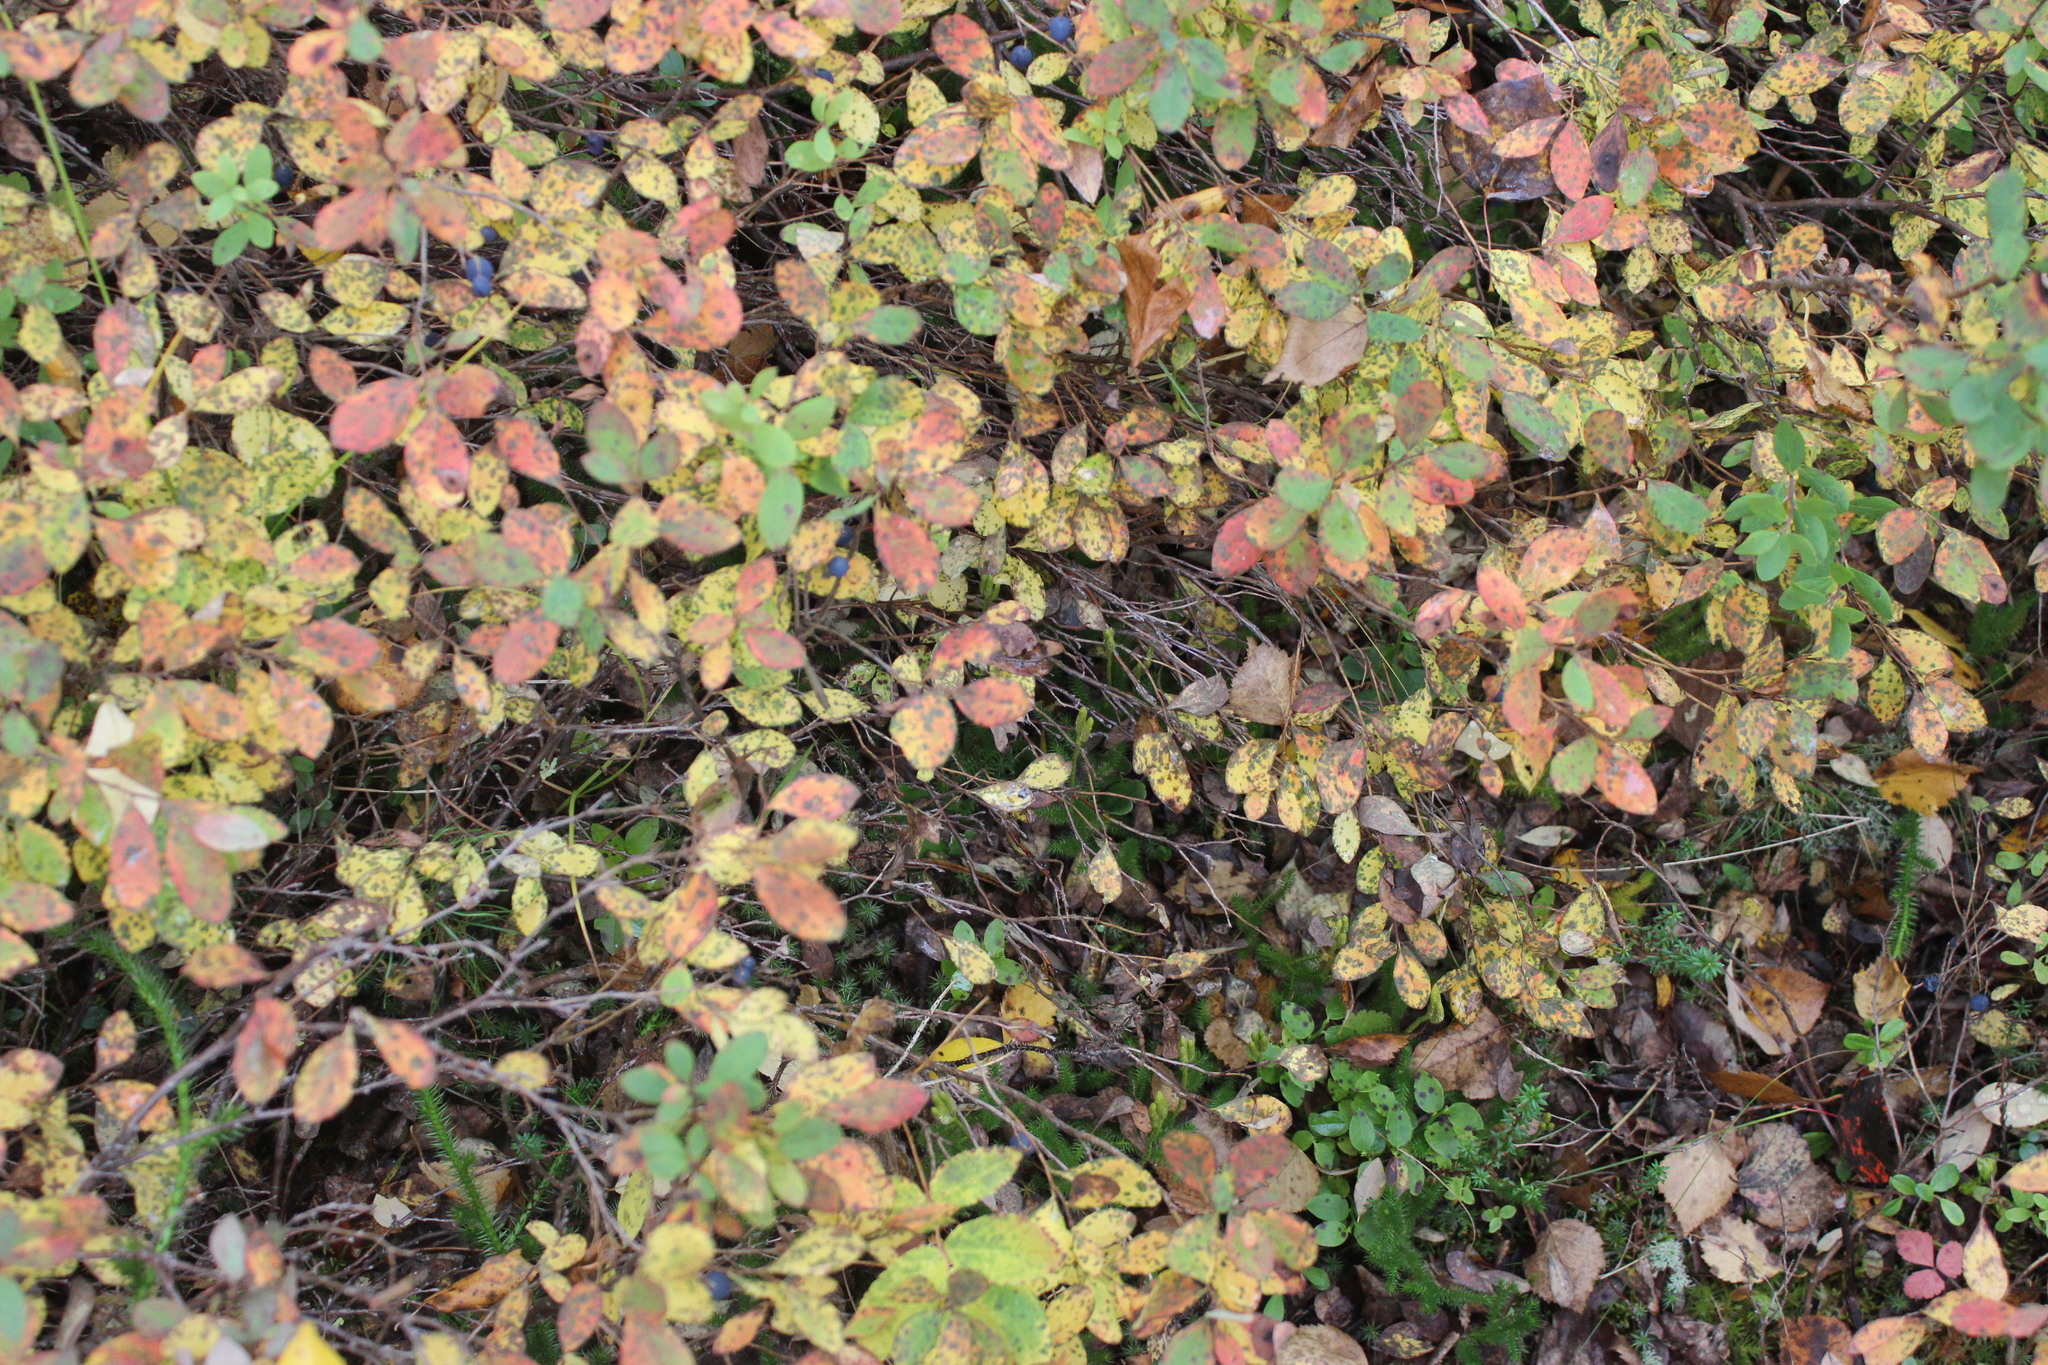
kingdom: Plantae
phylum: Tracheophyta
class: Magnoliopsida
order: Ericales
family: Ericaceae
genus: Vaccinium
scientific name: Vaccinium myrtillus
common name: Bilberry
